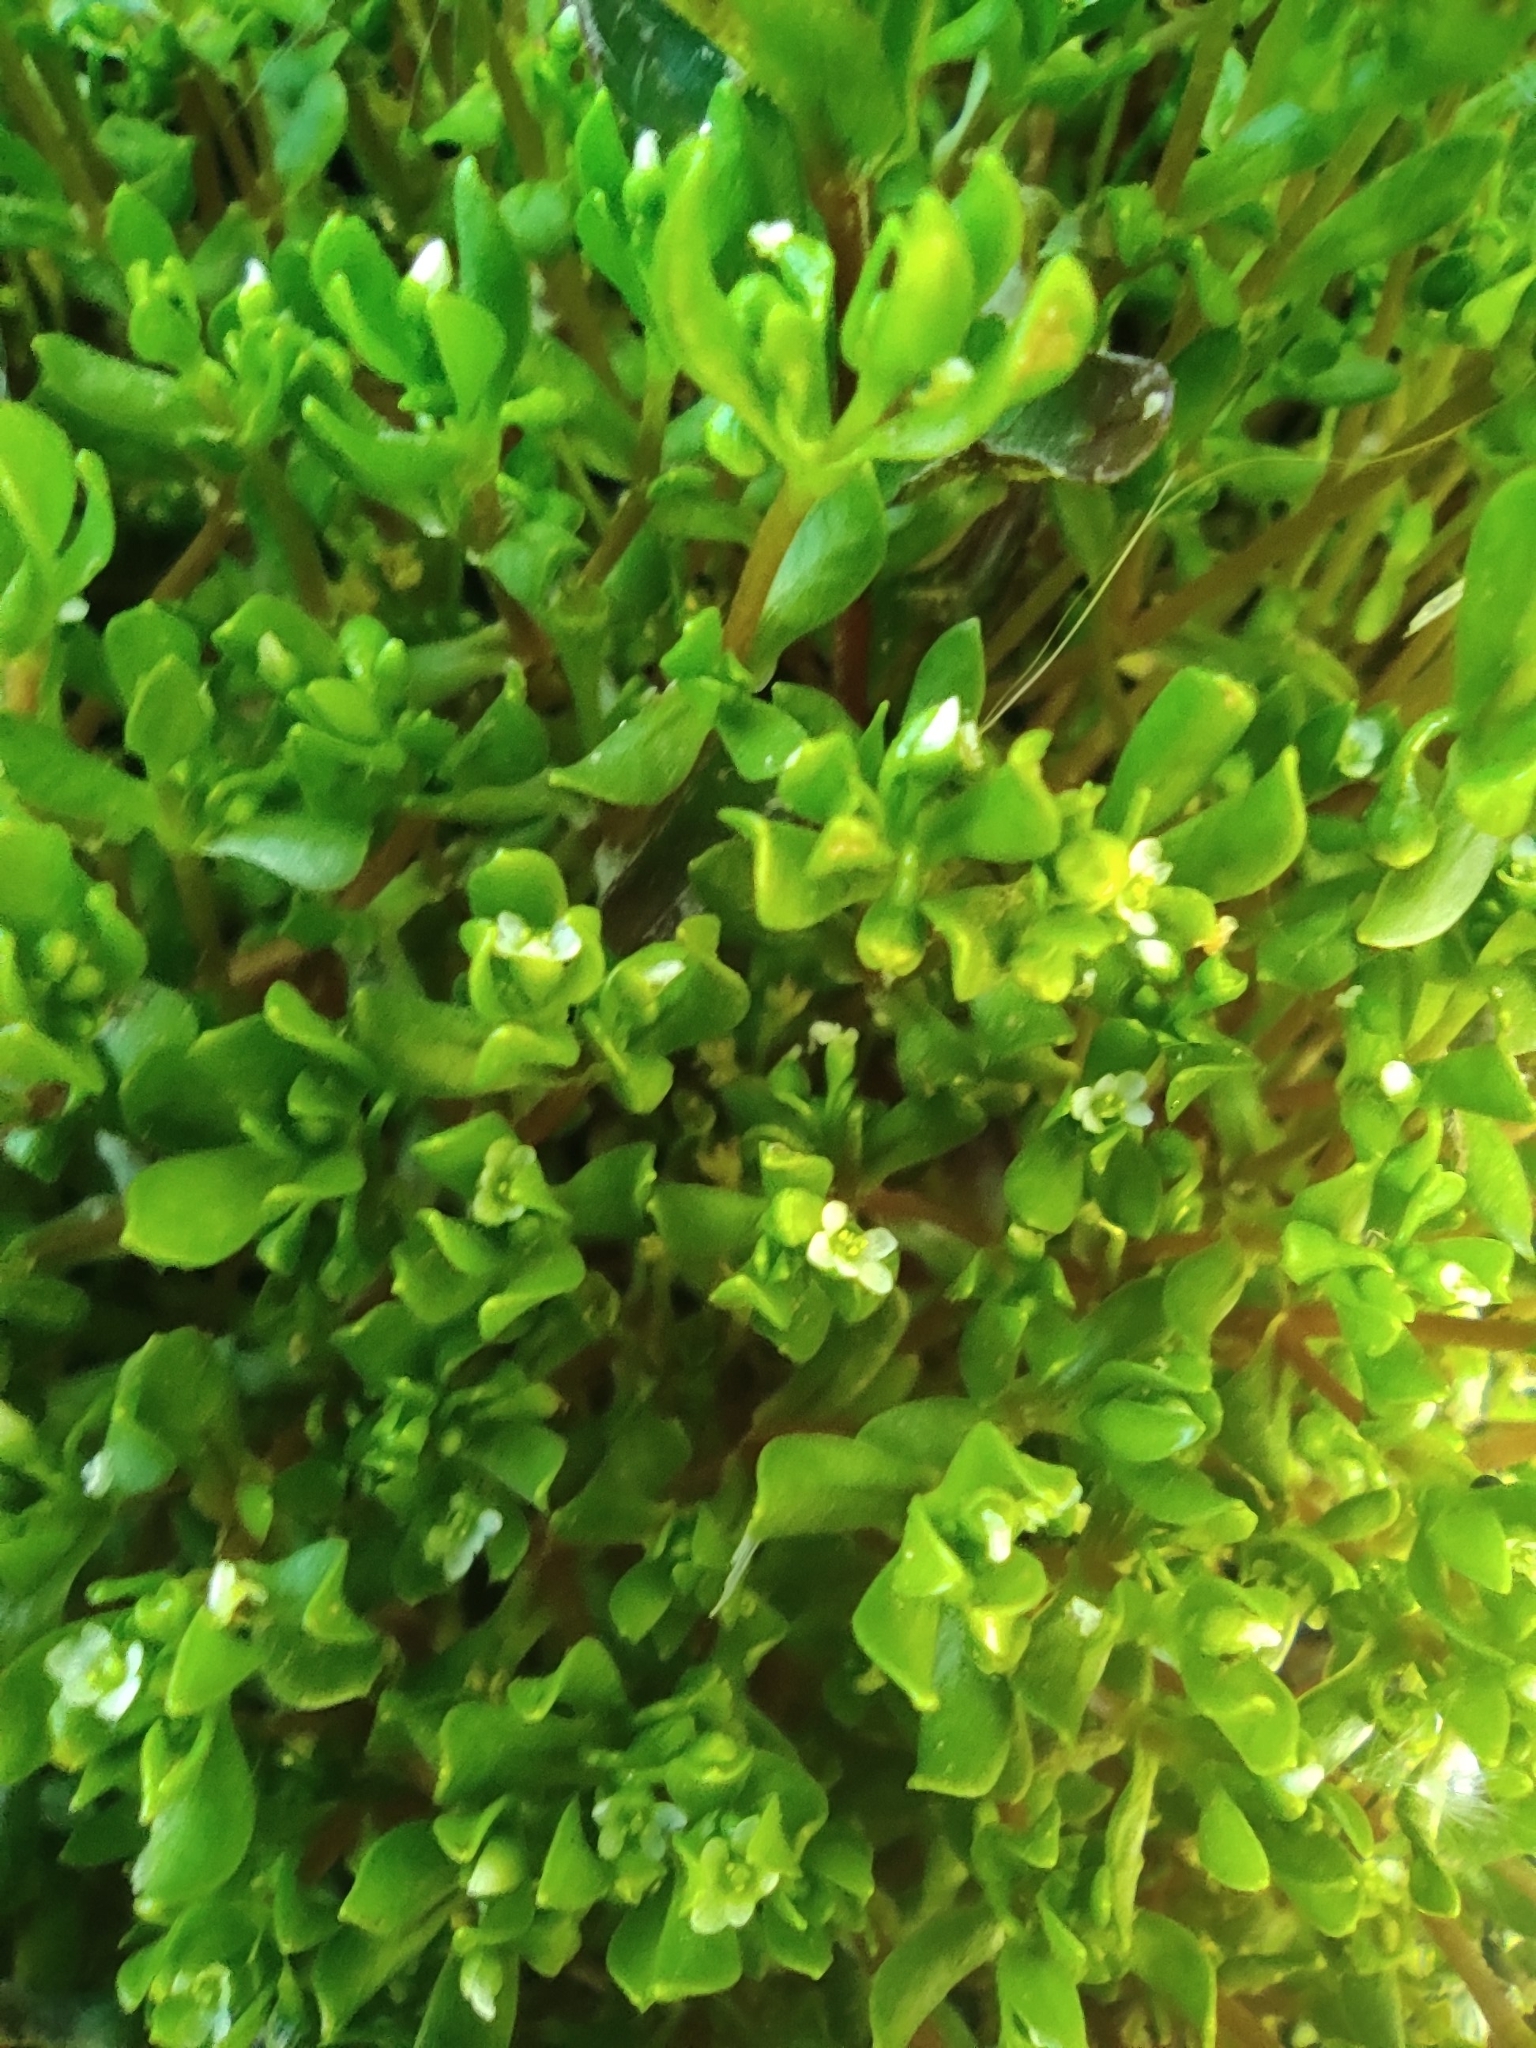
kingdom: Plantae
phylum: Tracheophyta
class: Magnoliopsida
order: Caryophyllales
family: Montiaceae
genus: Montia
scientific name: Montia fontana
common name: Blinks
